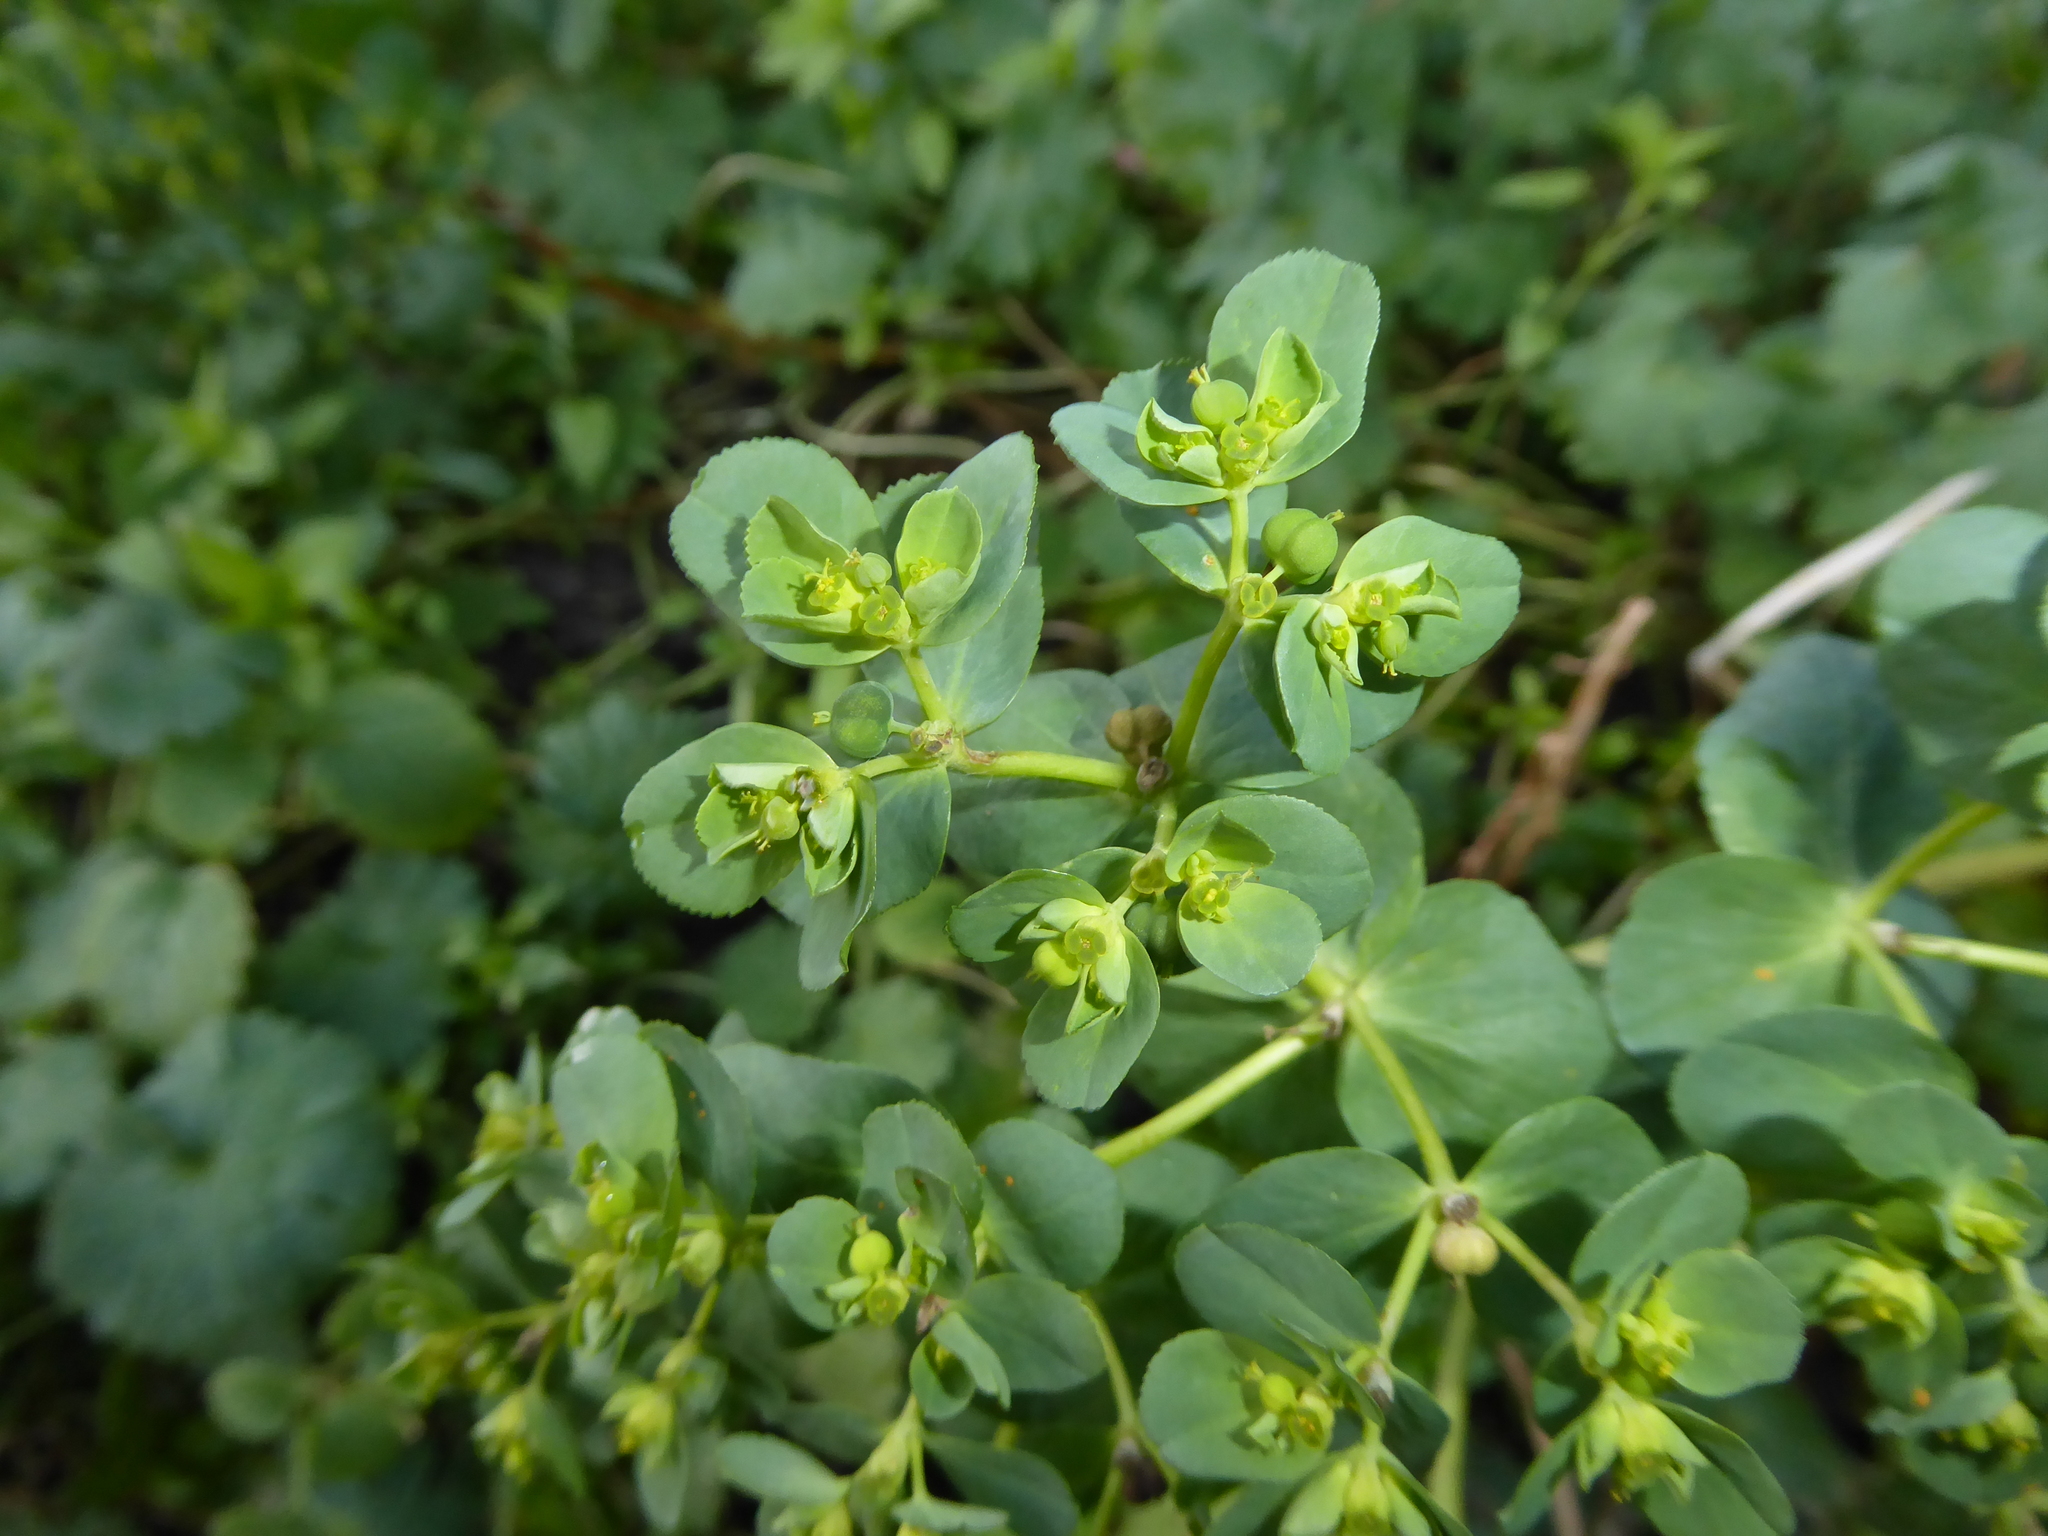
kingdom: Plantae
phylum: Tracheophyta
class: Magnoliopsida
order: Malpighiales
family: Euphorbiaceae
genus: Euphorbia
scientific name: Euphorbia helioscopia
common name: Sun spurge
